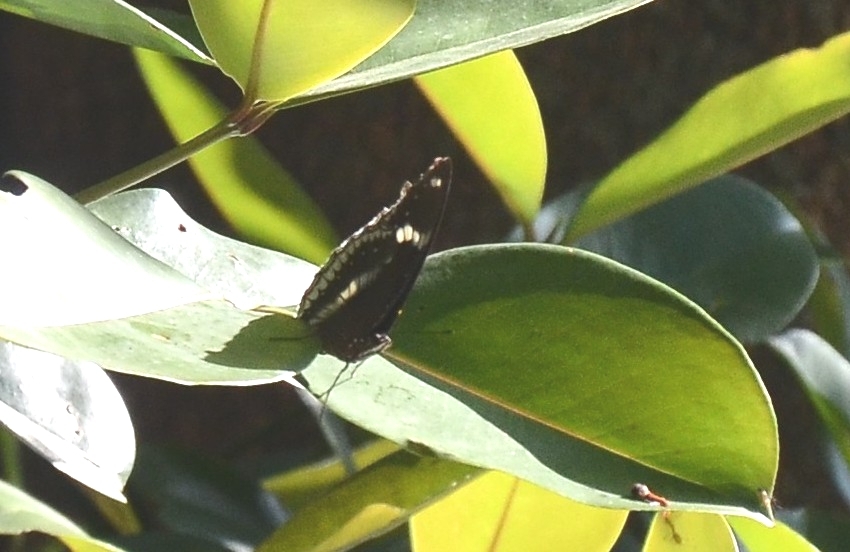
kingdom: Animalia
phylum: Arthropoda
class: Insecta
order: Lepidoptera
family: Nymphalidae
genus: Hypolimnas
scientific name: Hypolimnas bolina
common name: Great eggfly
